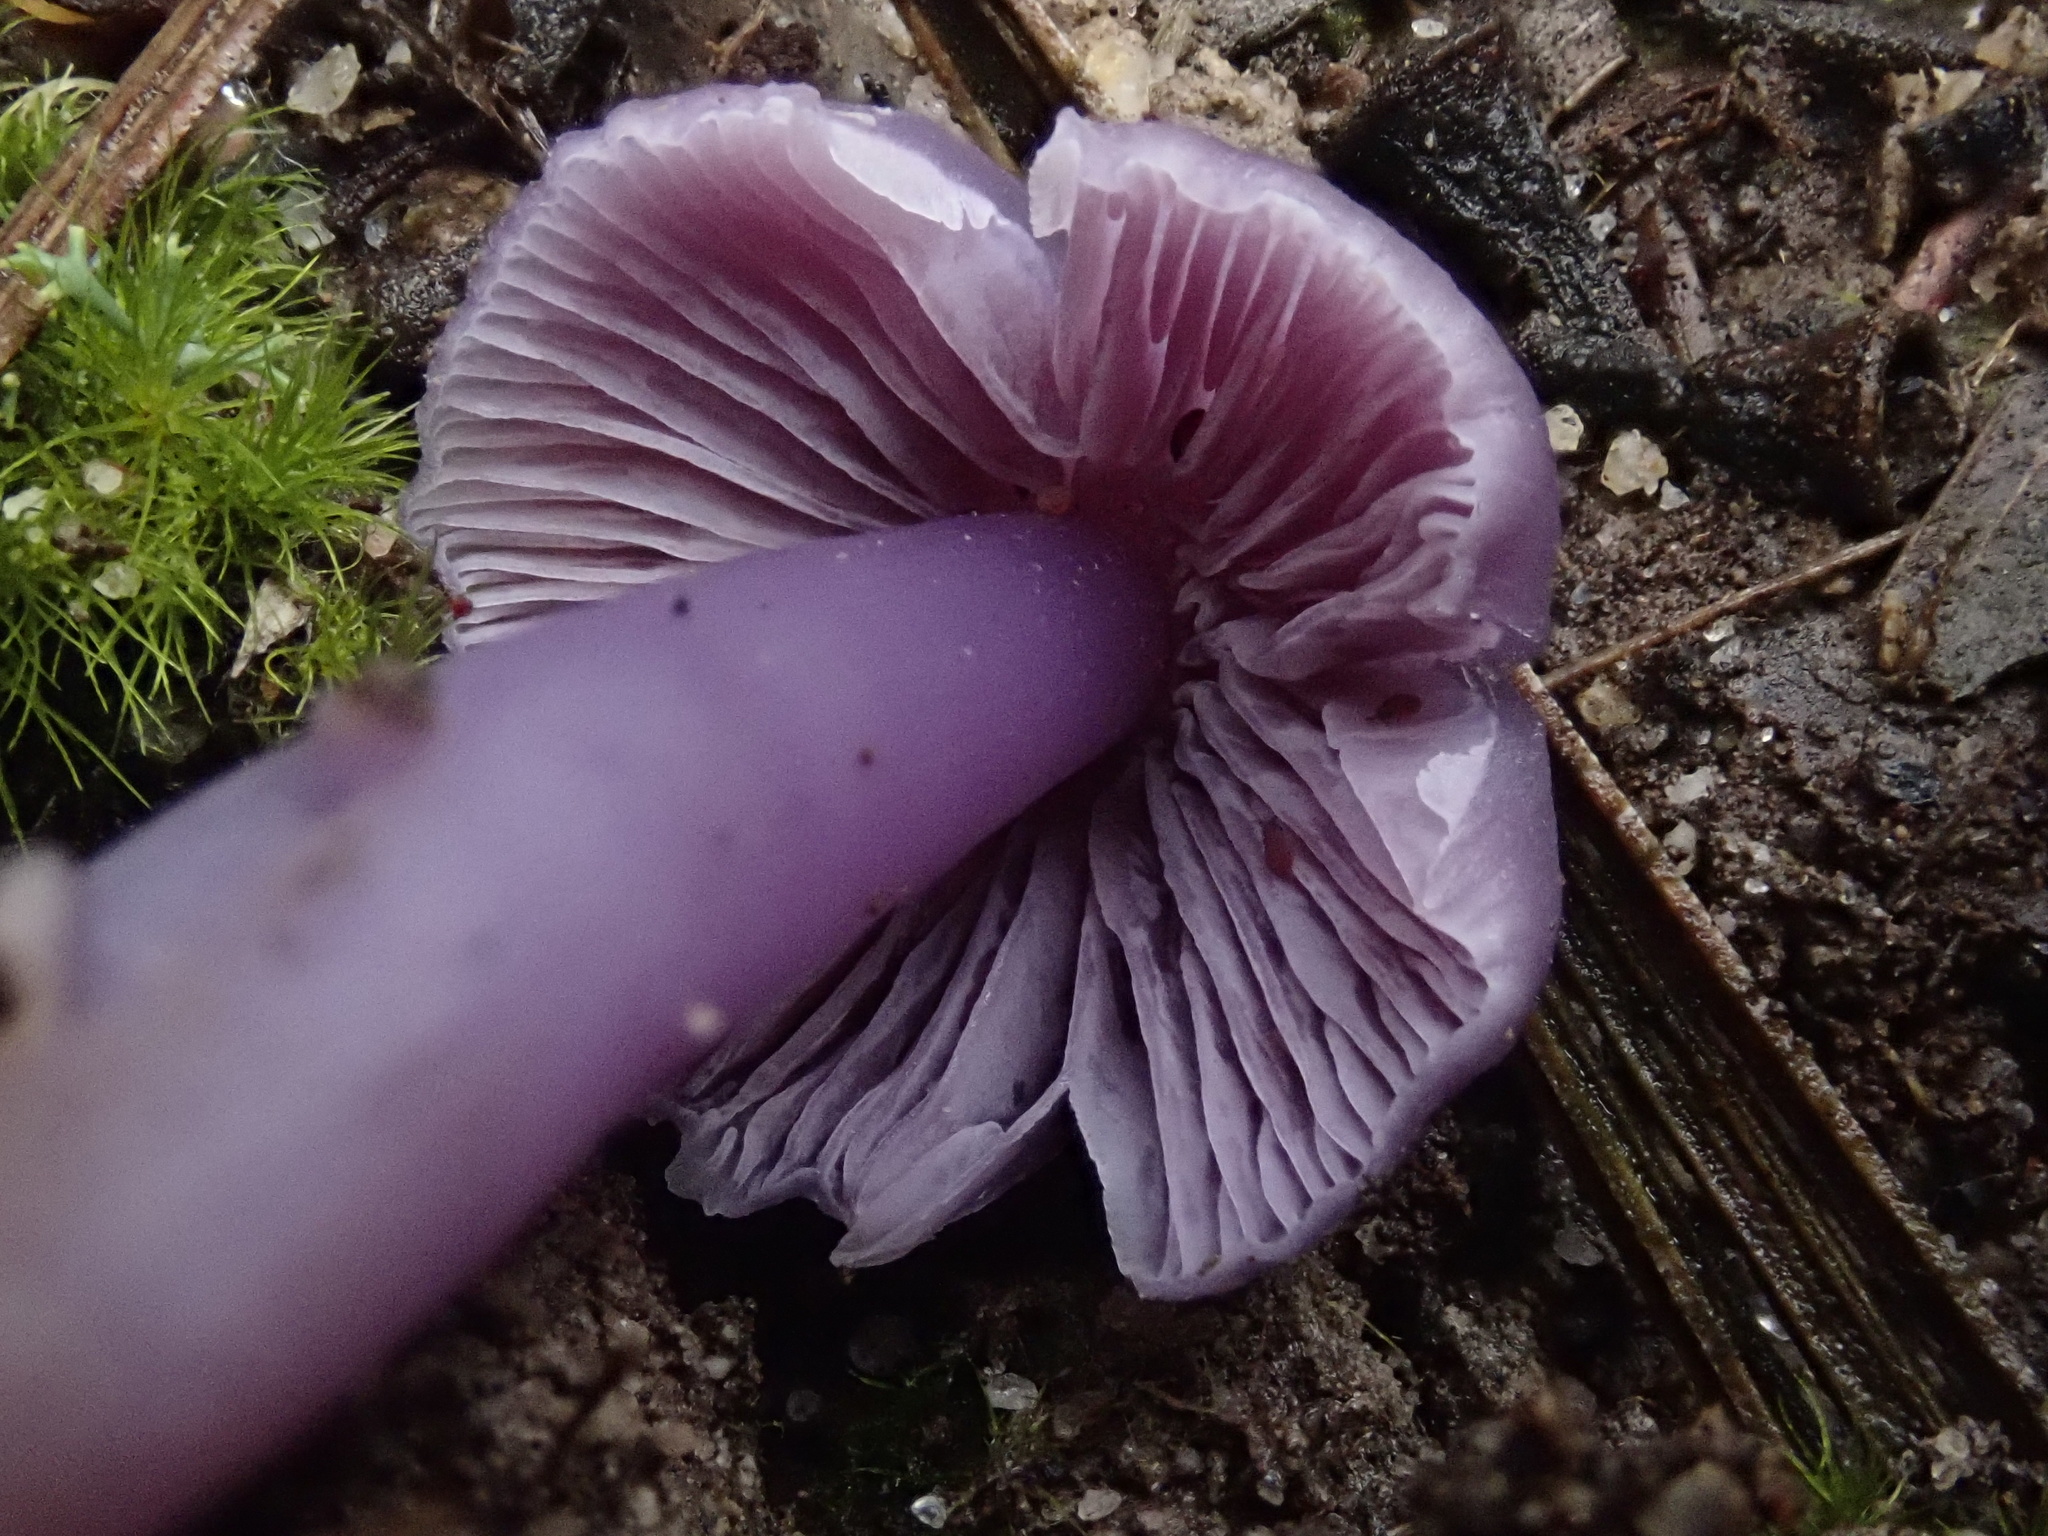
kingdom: Fungi
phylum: Basidiomycota
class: Agaricomycetes
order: Agaricales
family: Hygrophoraceae
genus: Porpolomopsis
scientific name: Porpolomopsis lewelliniae
